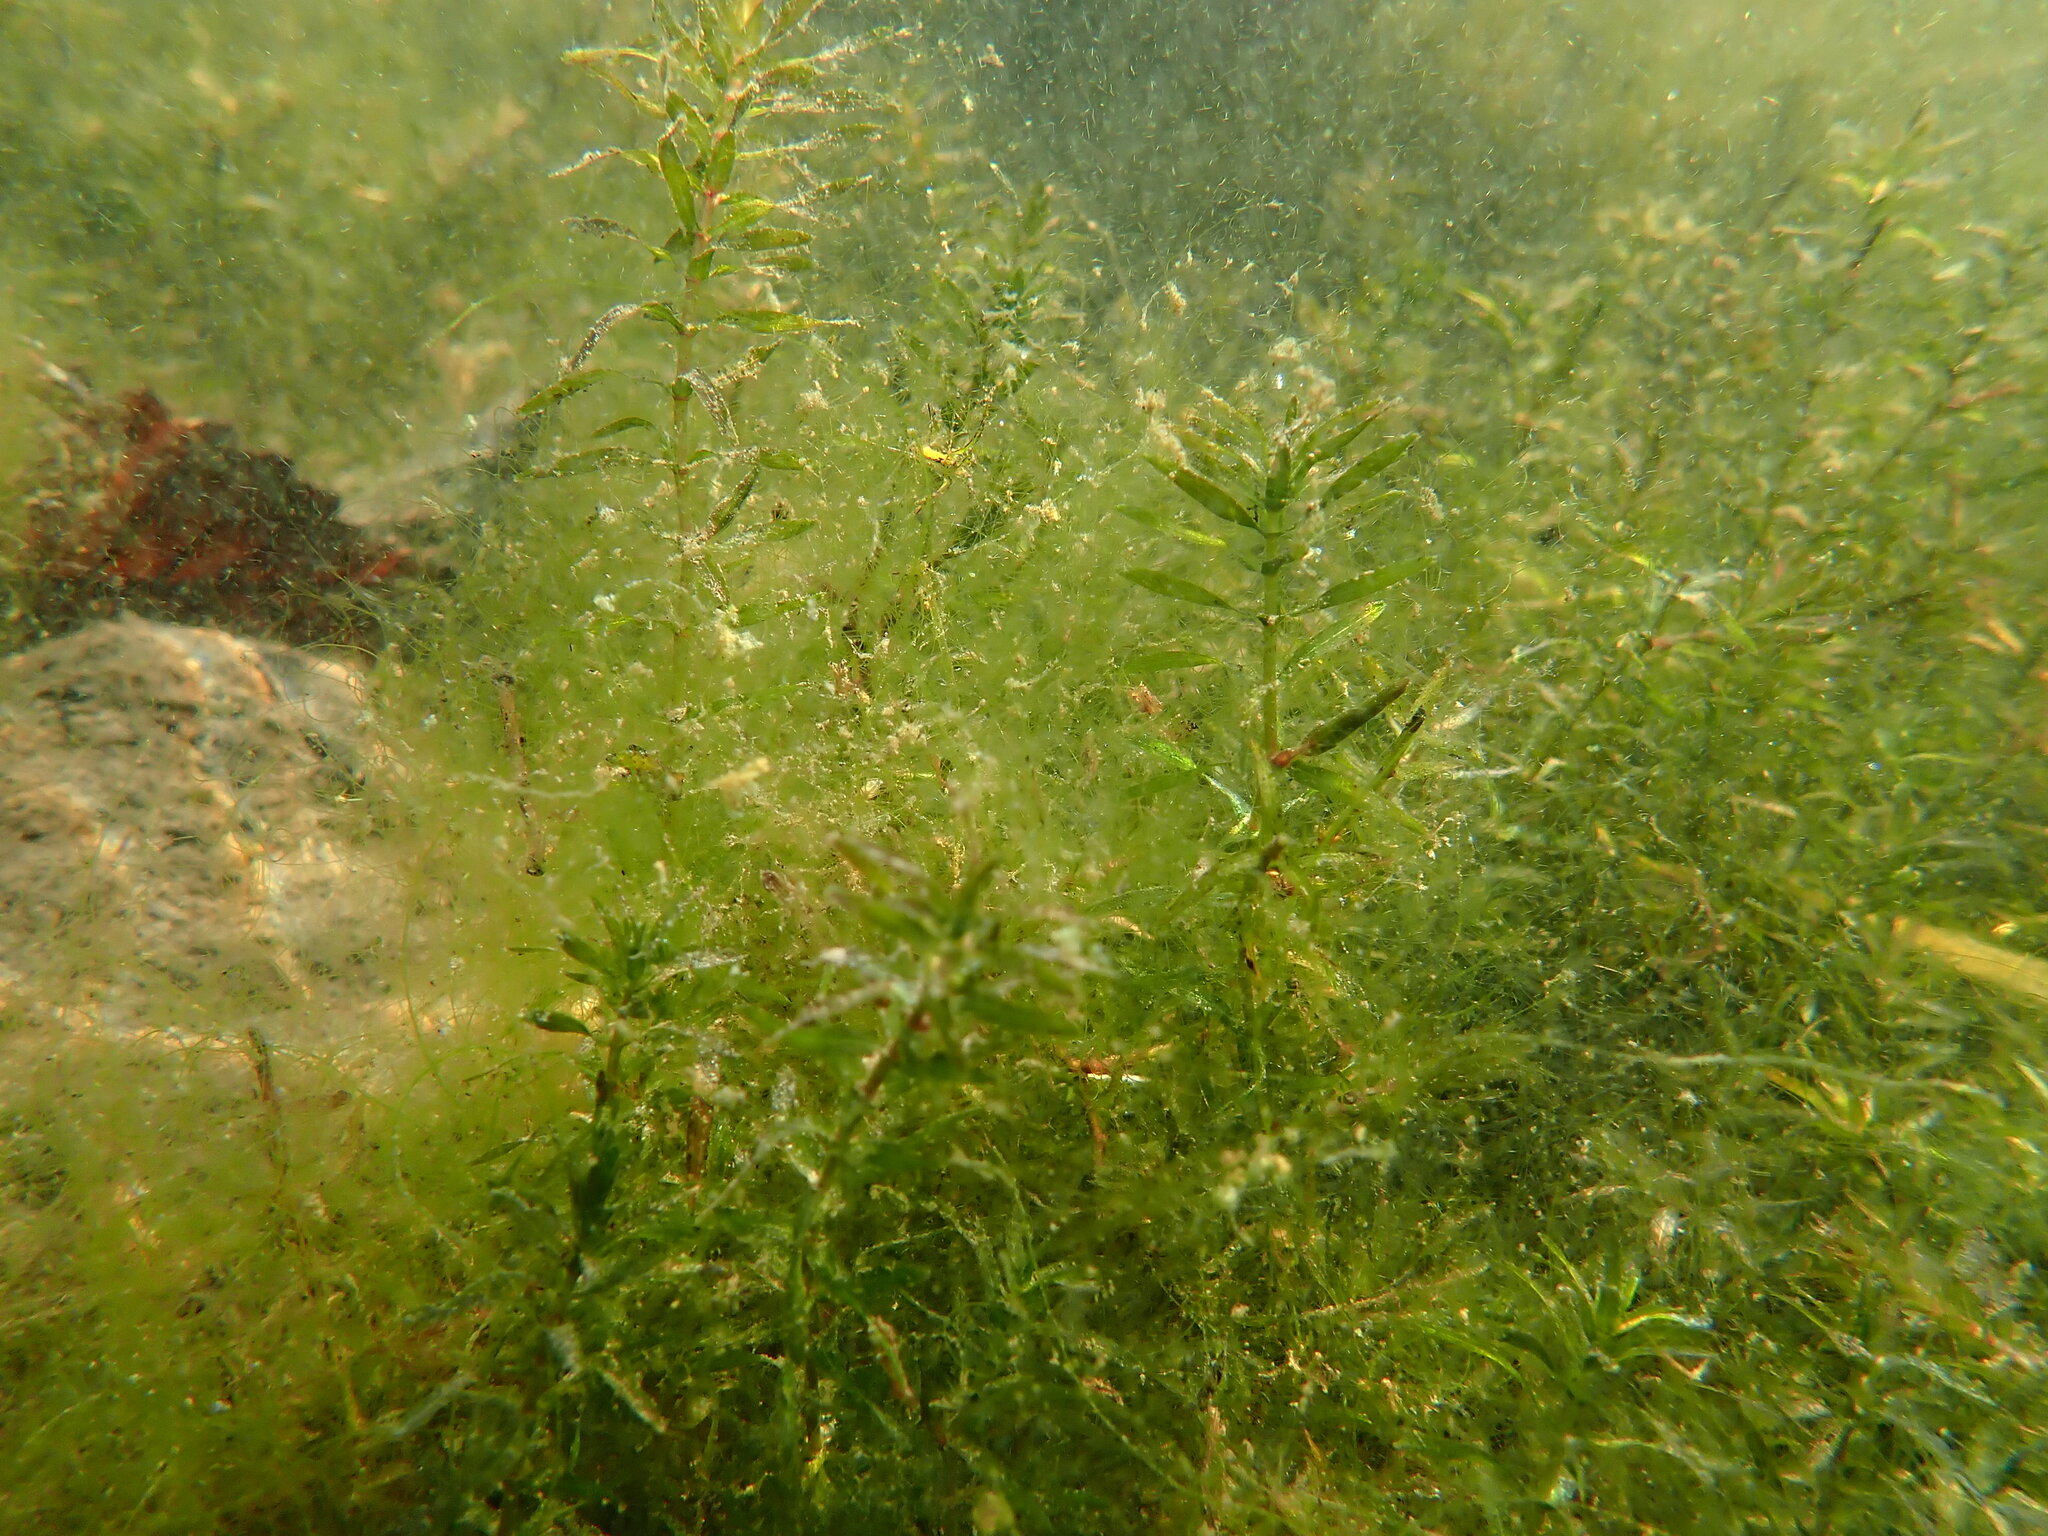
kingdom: Plantae
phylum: Tracheophyta
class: Liliopsida
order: Alismatales
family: Hydrocharitaceae
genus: Elodea
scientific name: Elodea canadensis
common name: Canadian waterweed
